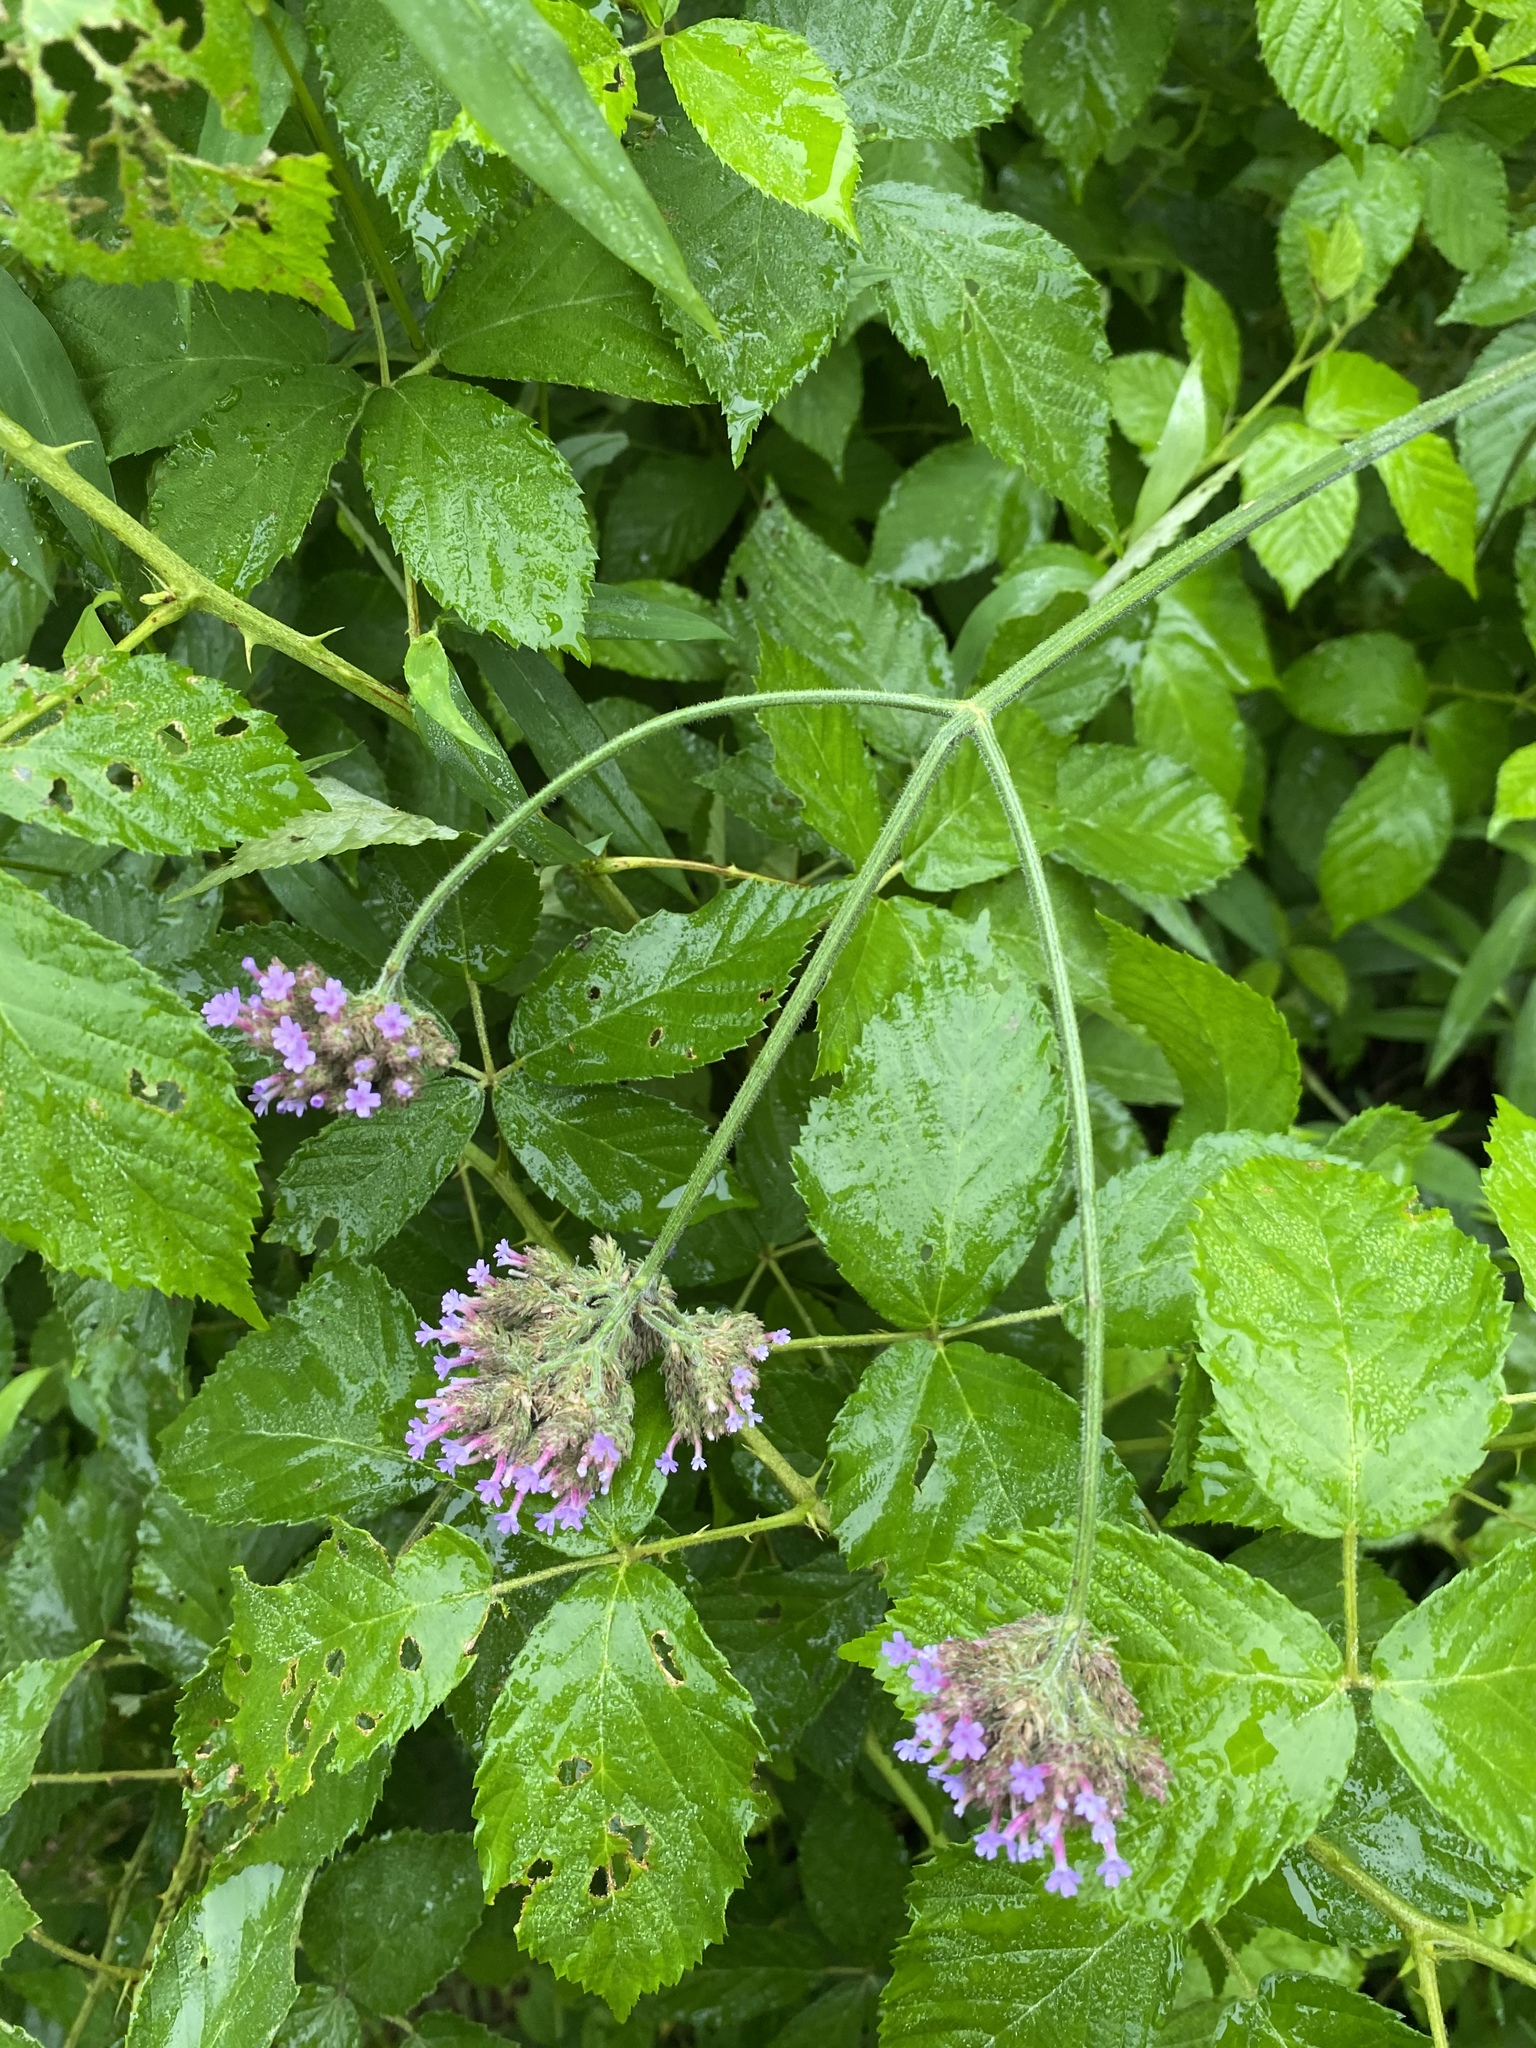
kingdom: Plantae
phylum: Tracheophyta
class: Magnoliopsida
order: Lamiales
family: Verbenaceae
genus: Verbena
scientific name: Verbena bonariensis
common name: Purpletop vervain
